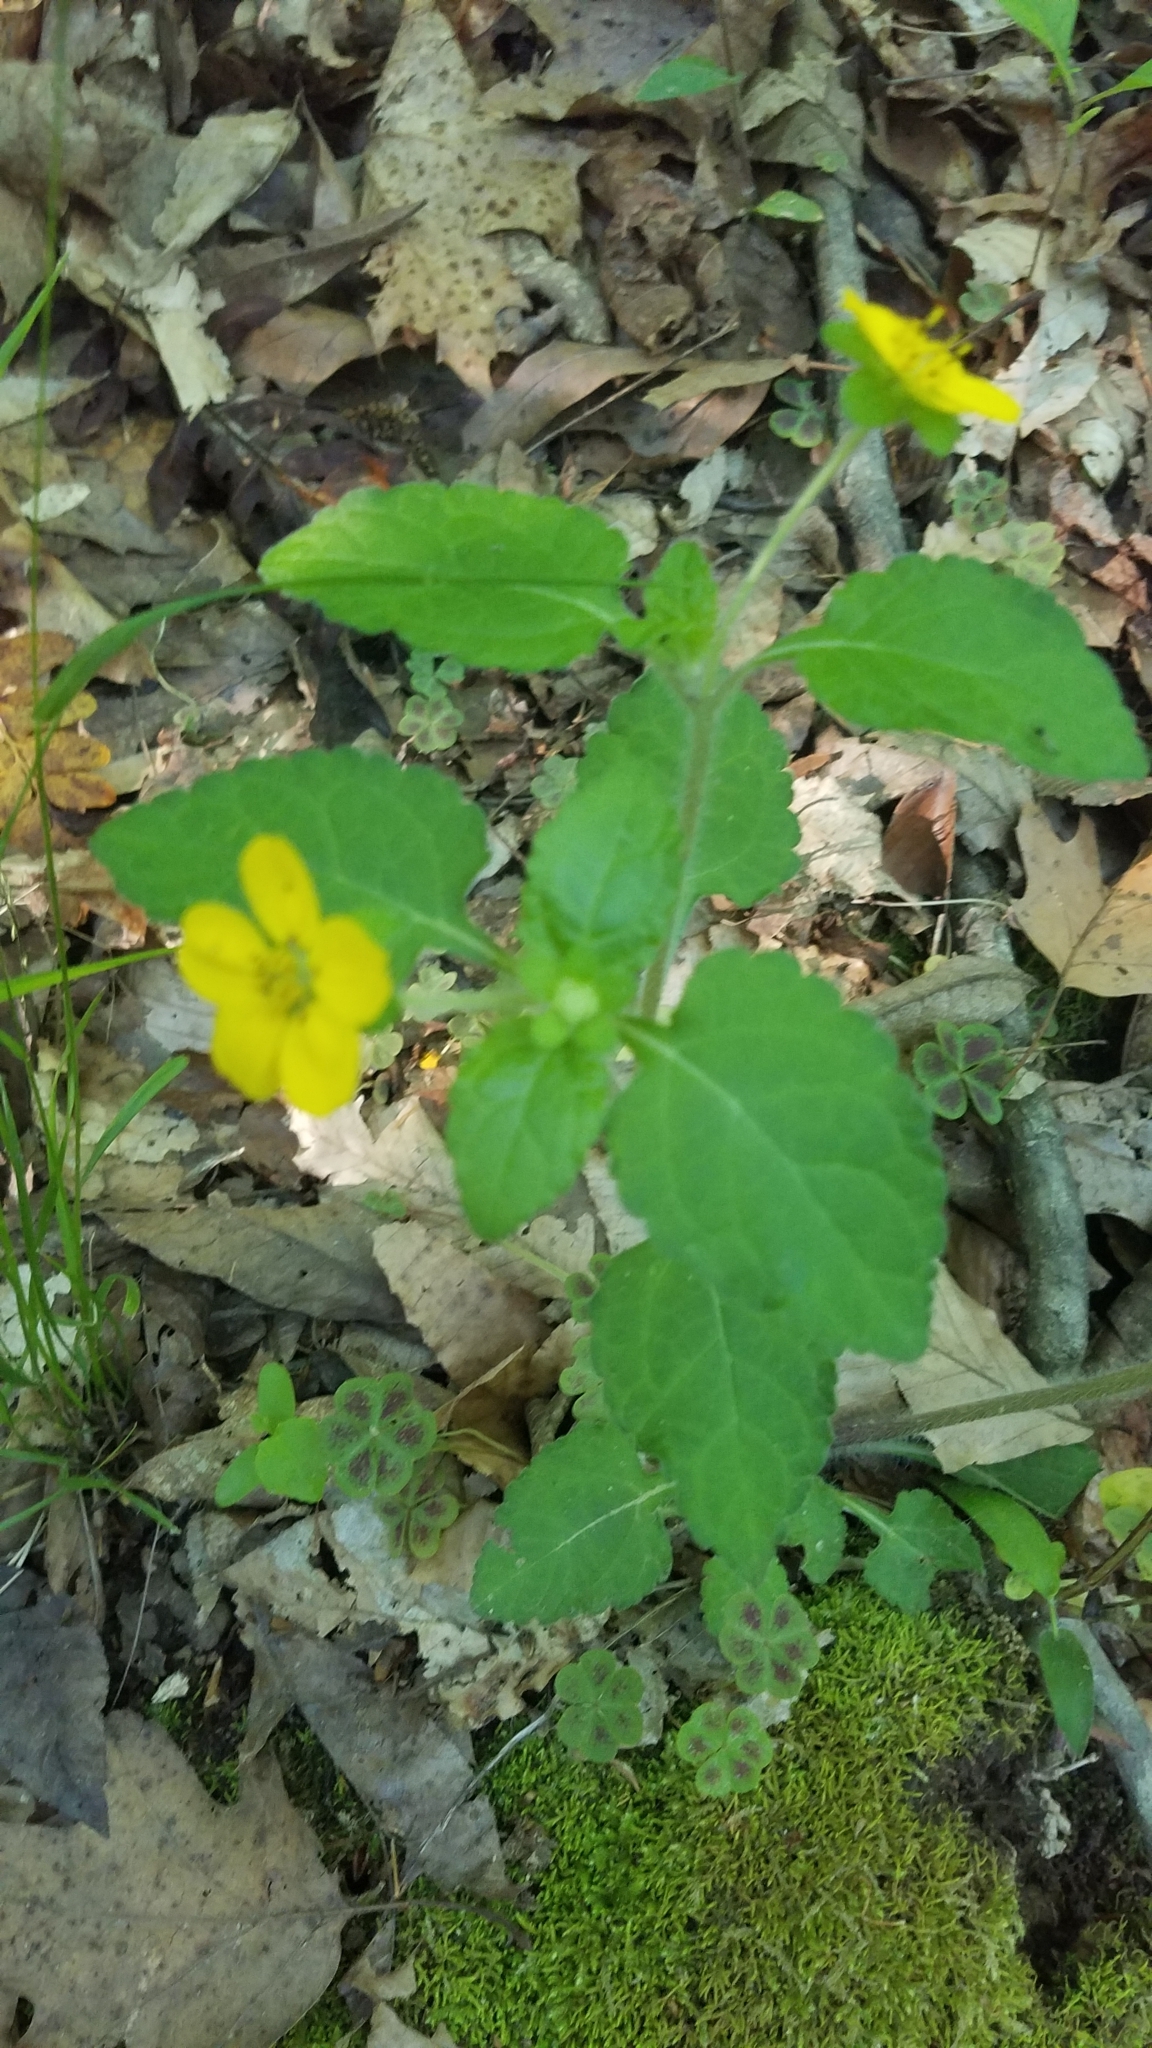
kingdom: Plantae
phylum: Tracheophyta
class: Magnoliopsida
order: Asterales
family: Asteraceae
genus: Chrysogonum
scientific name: Chrysogonum virginianum
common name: Golden-knee
